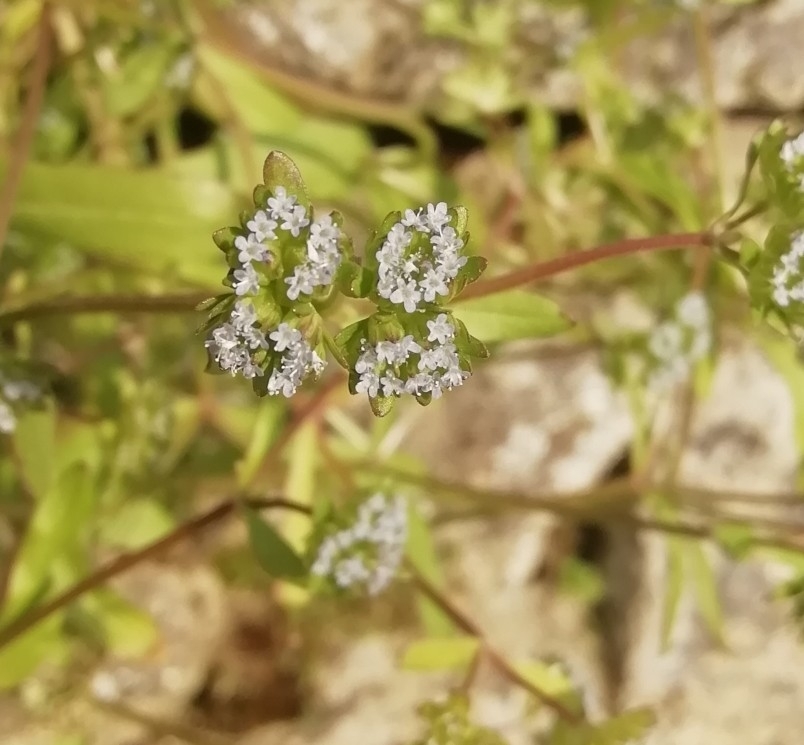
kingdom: Plantae
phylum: Tracheophyta
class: Magnoliopsida
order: Dipsacales
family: Caprifoliaceae
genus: Valerianella
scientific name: Valerianella locusta
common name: Common cornsalad
